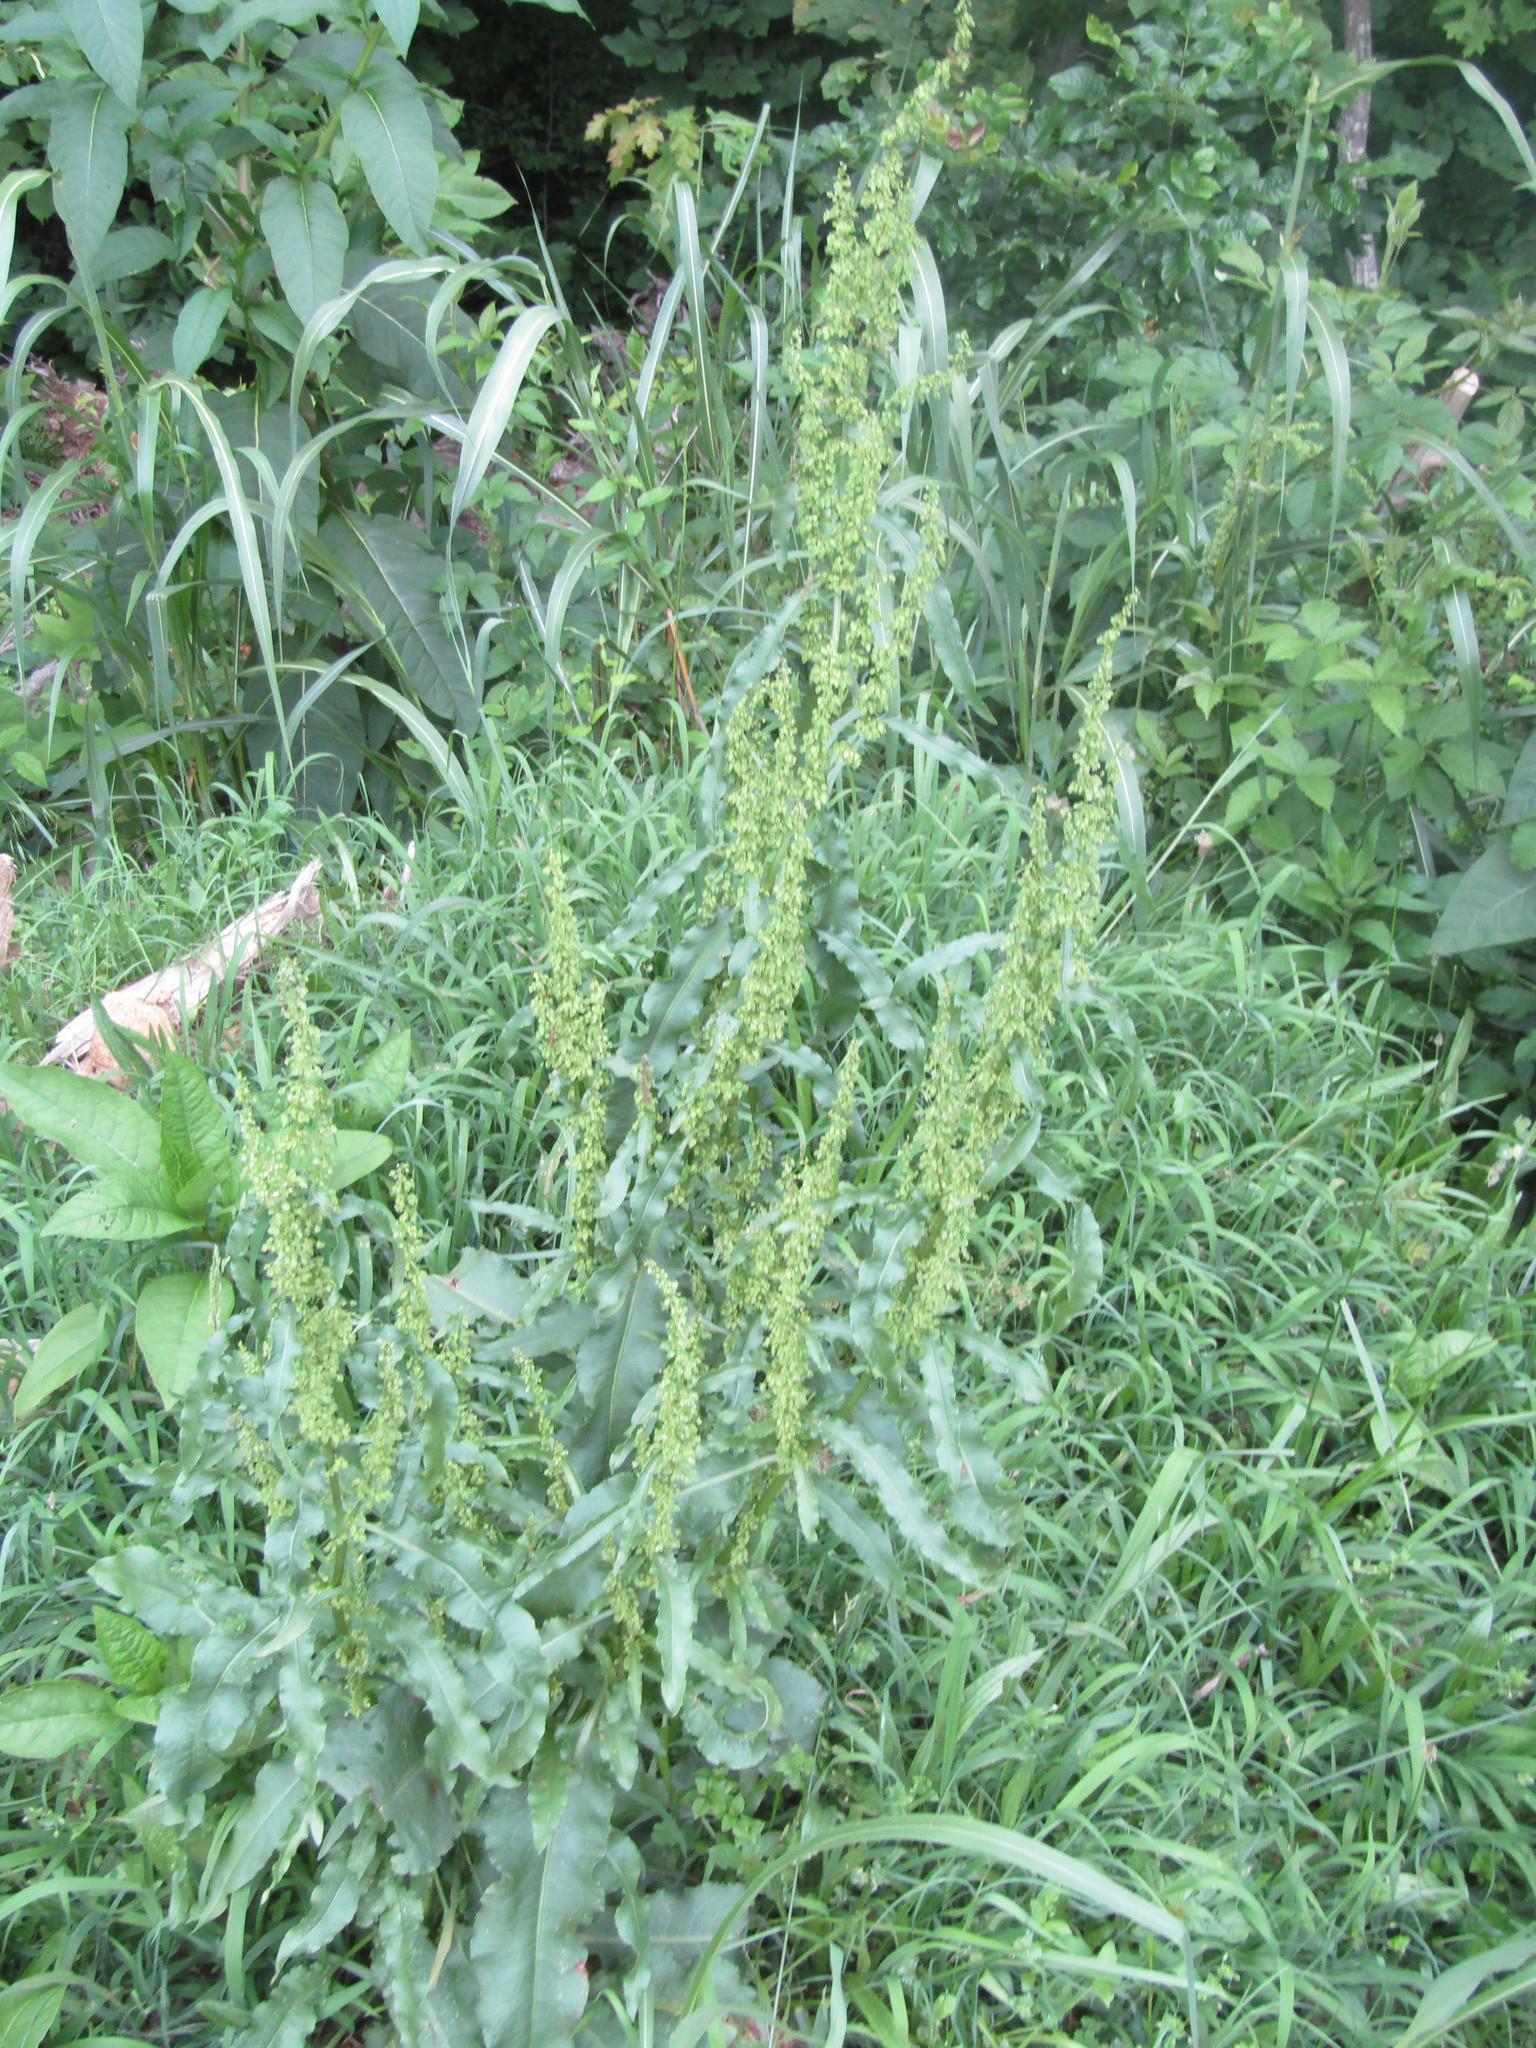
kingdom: Plantae
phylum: Tracheophyta
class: Magnoliopsida
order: Caryophyllales
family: Polygonaceae
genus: Rumex
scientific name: Rumex crispus
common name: Curled dock
